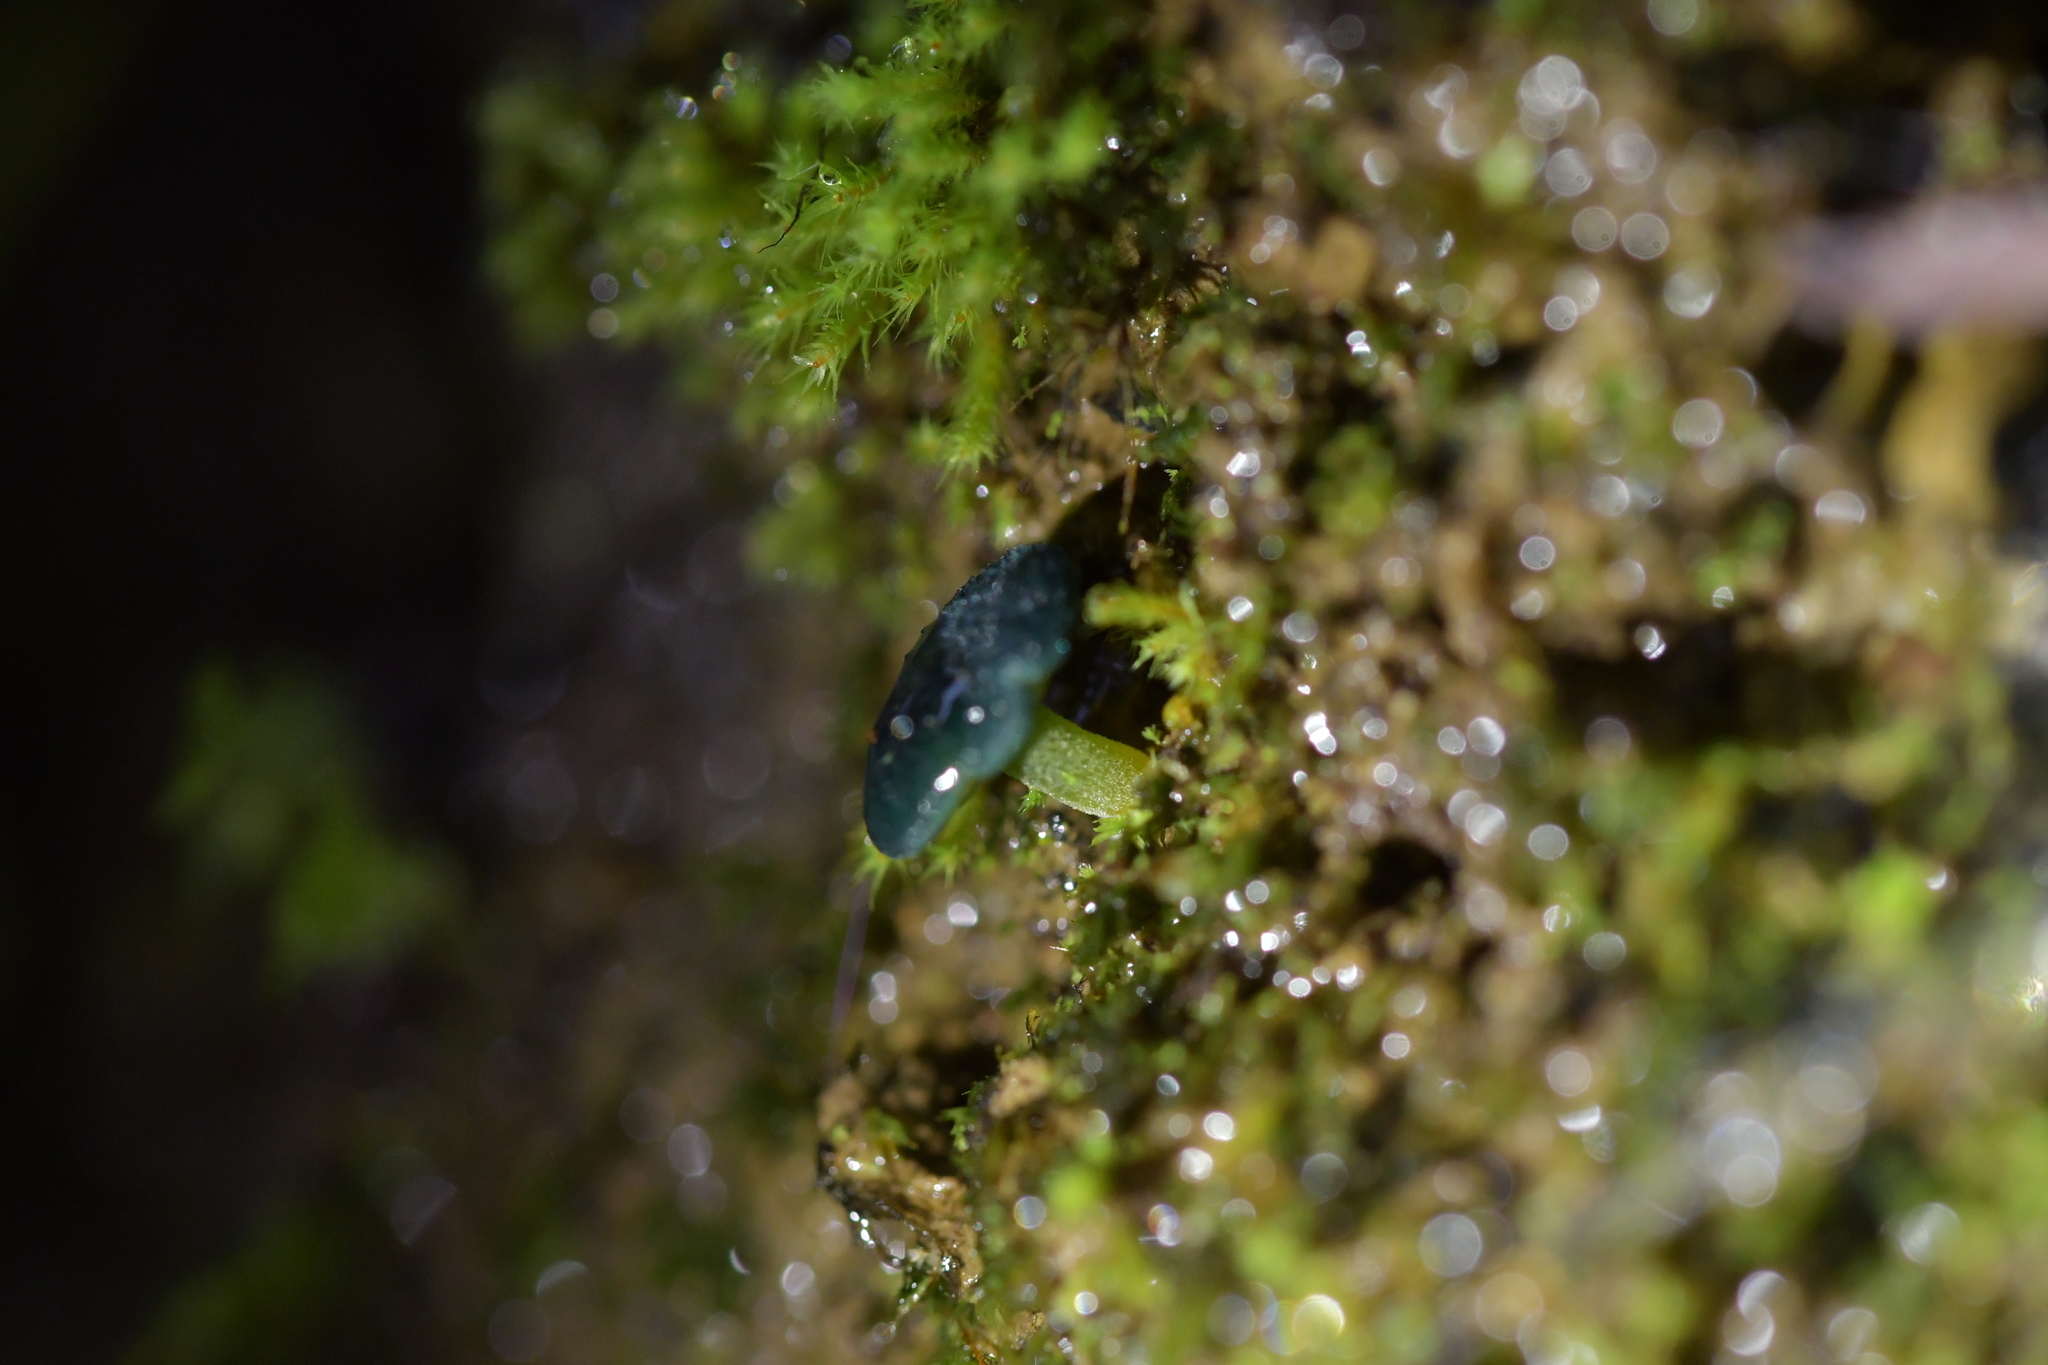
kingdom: Fungi
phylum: Basidiomycota
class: Agaricomycetes
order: Agaricales
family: Hygrophoraceae
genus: Humidicutis
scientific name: Humidicutis luteovirens
